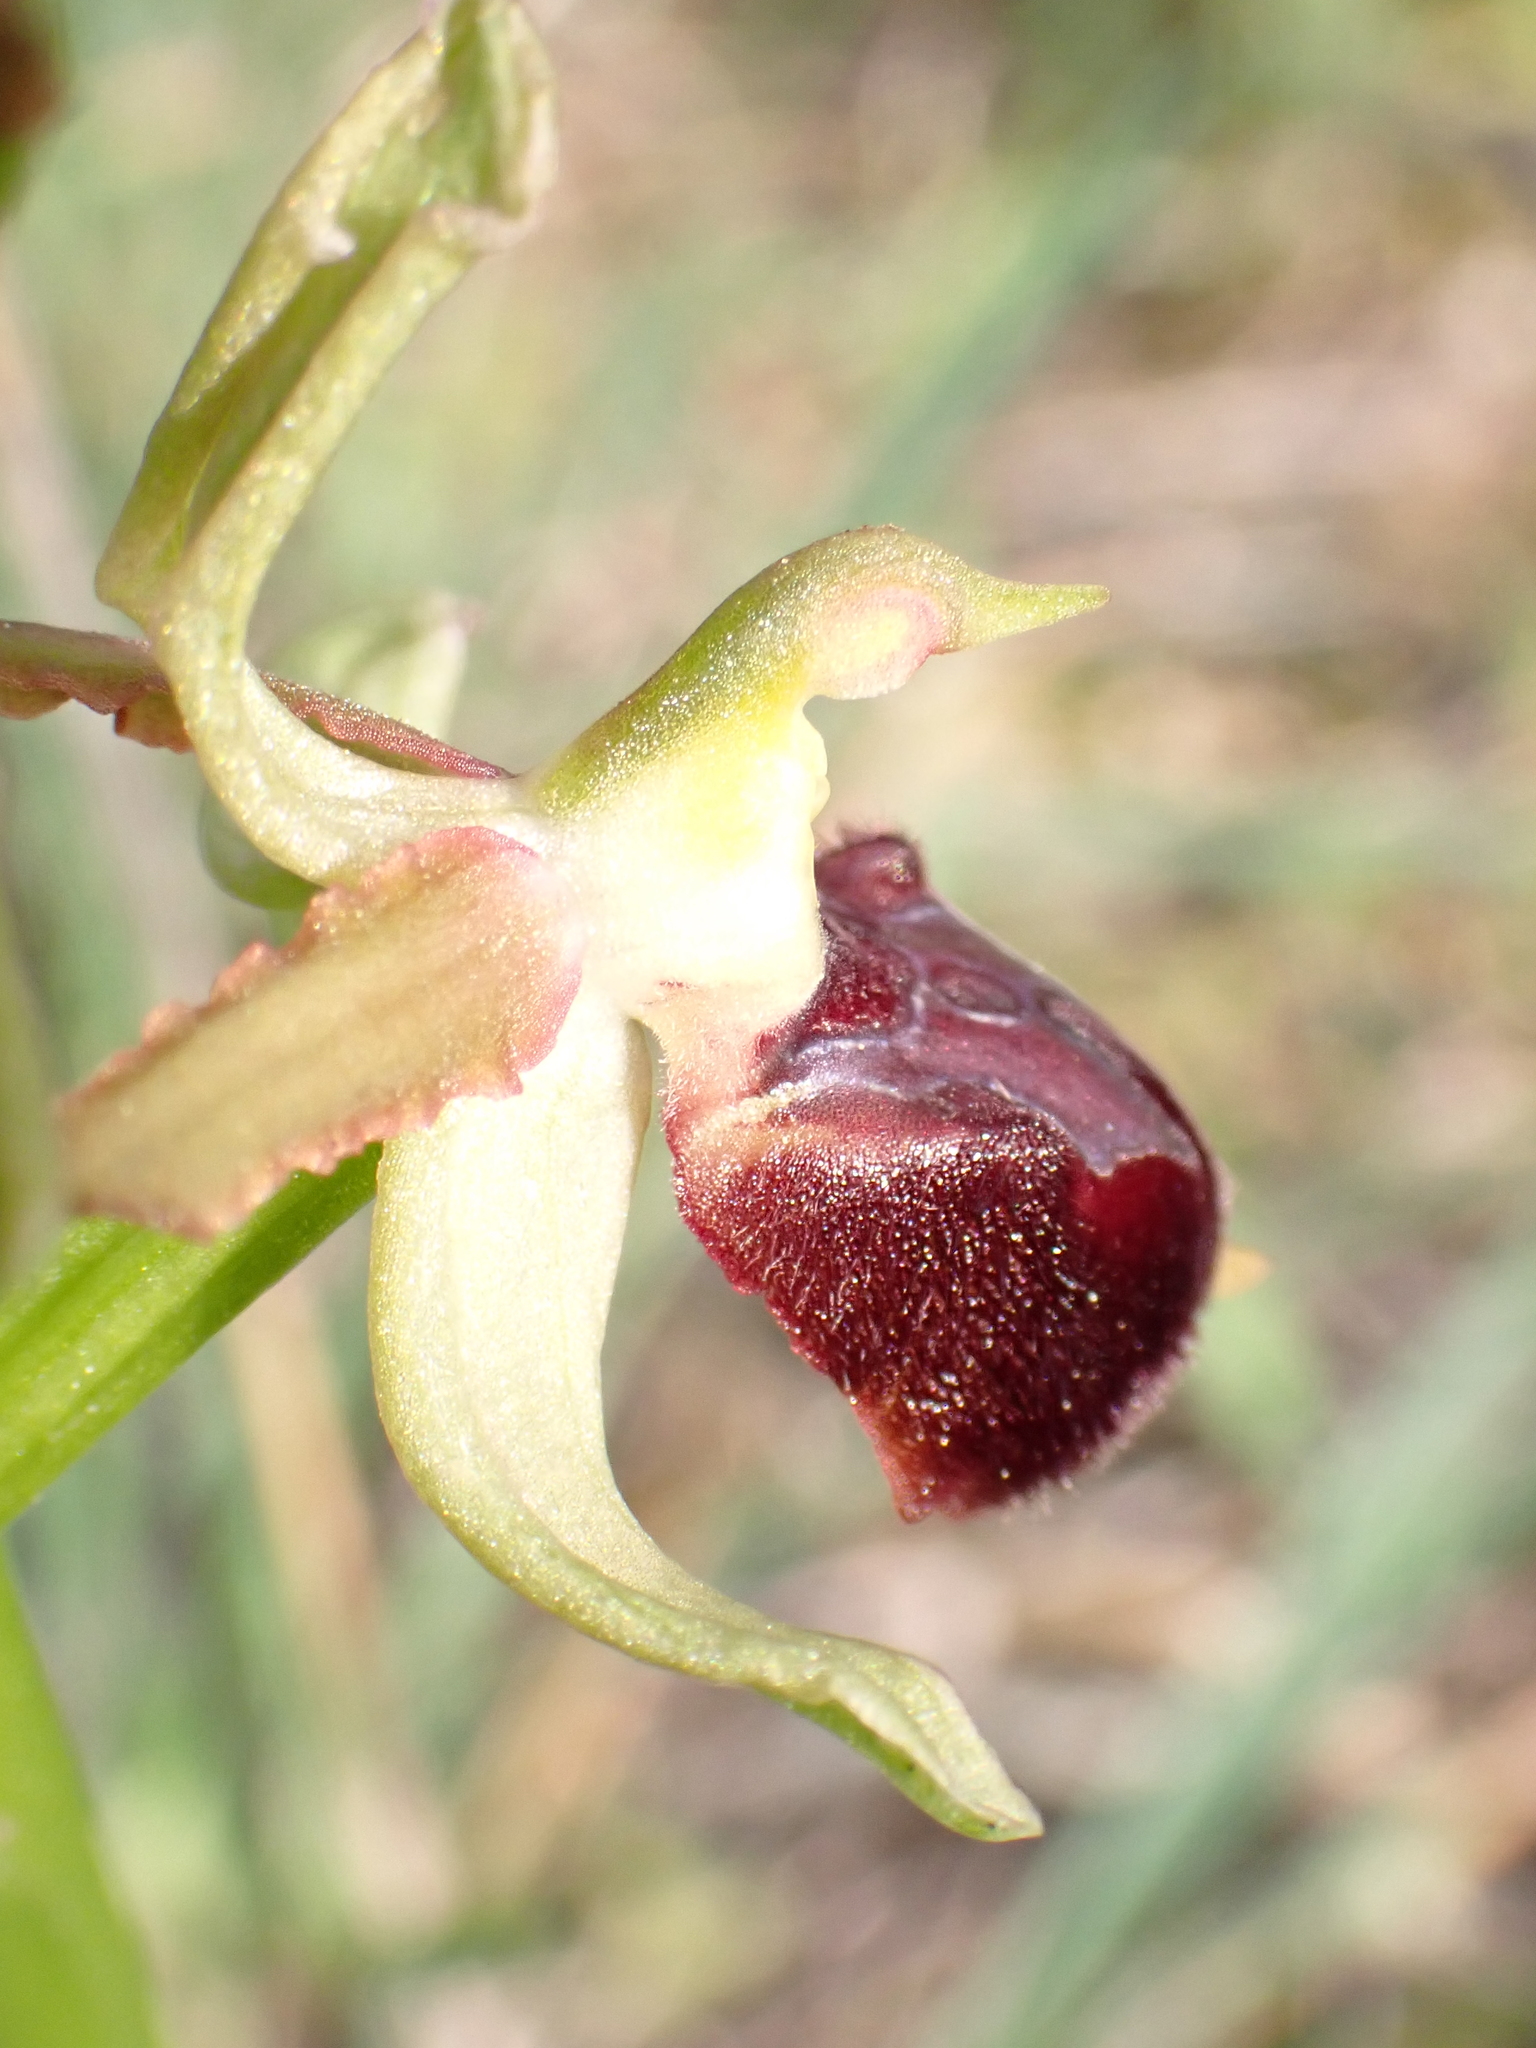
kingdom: Plantae
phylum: Tracheophyta
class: Liliopsida
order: Asparagales
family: Orchidaceae
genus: Ophrys
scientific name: Ophrys arachnitiformis
